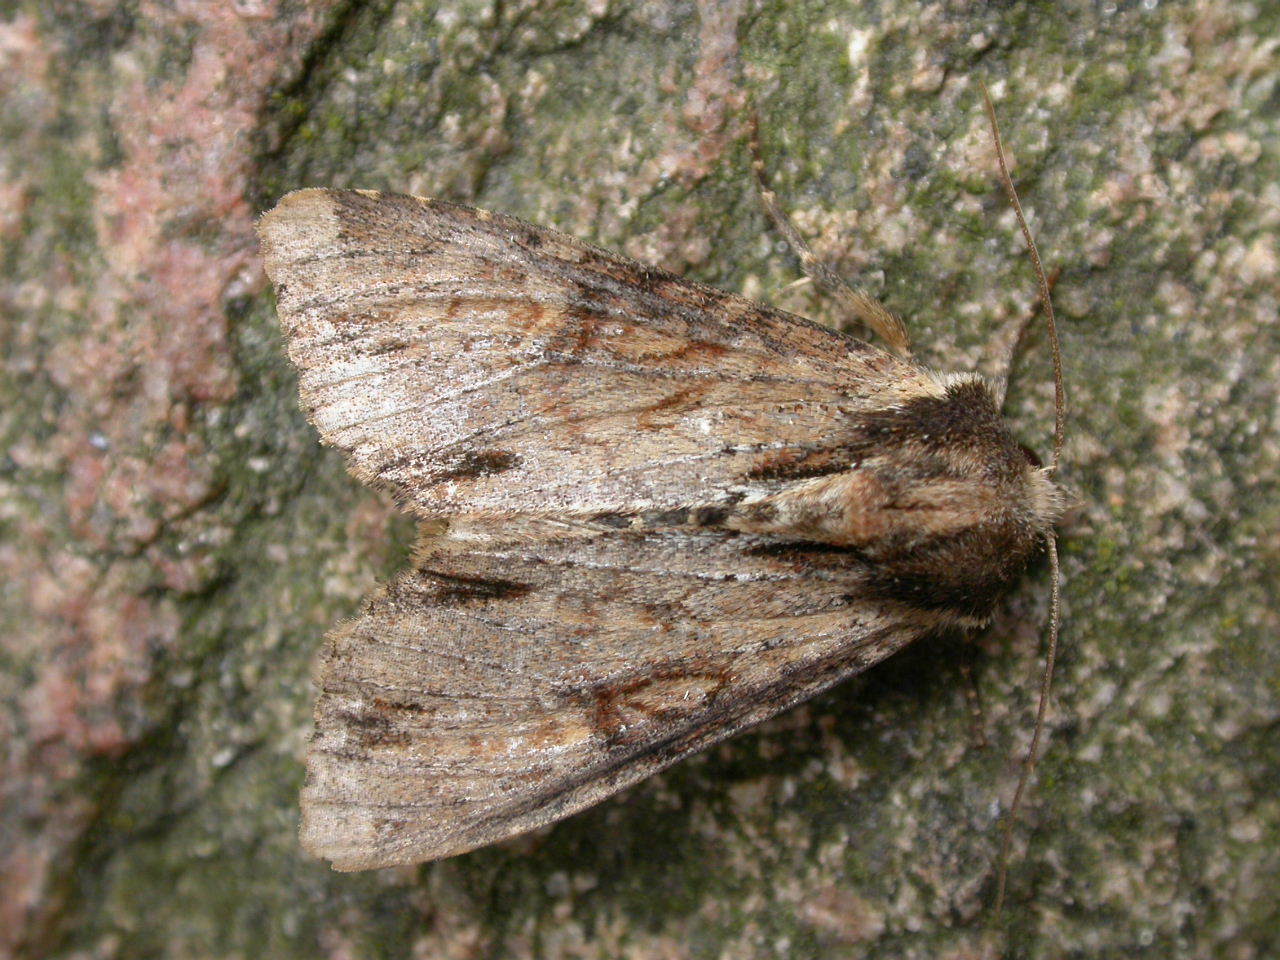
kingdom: Animalia
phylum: Arthropoda
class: Insecta
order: Lepidoptera
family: Noctuidae
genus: Apamea
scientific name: Apamea crenata
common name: Clouded-bordered brindle
